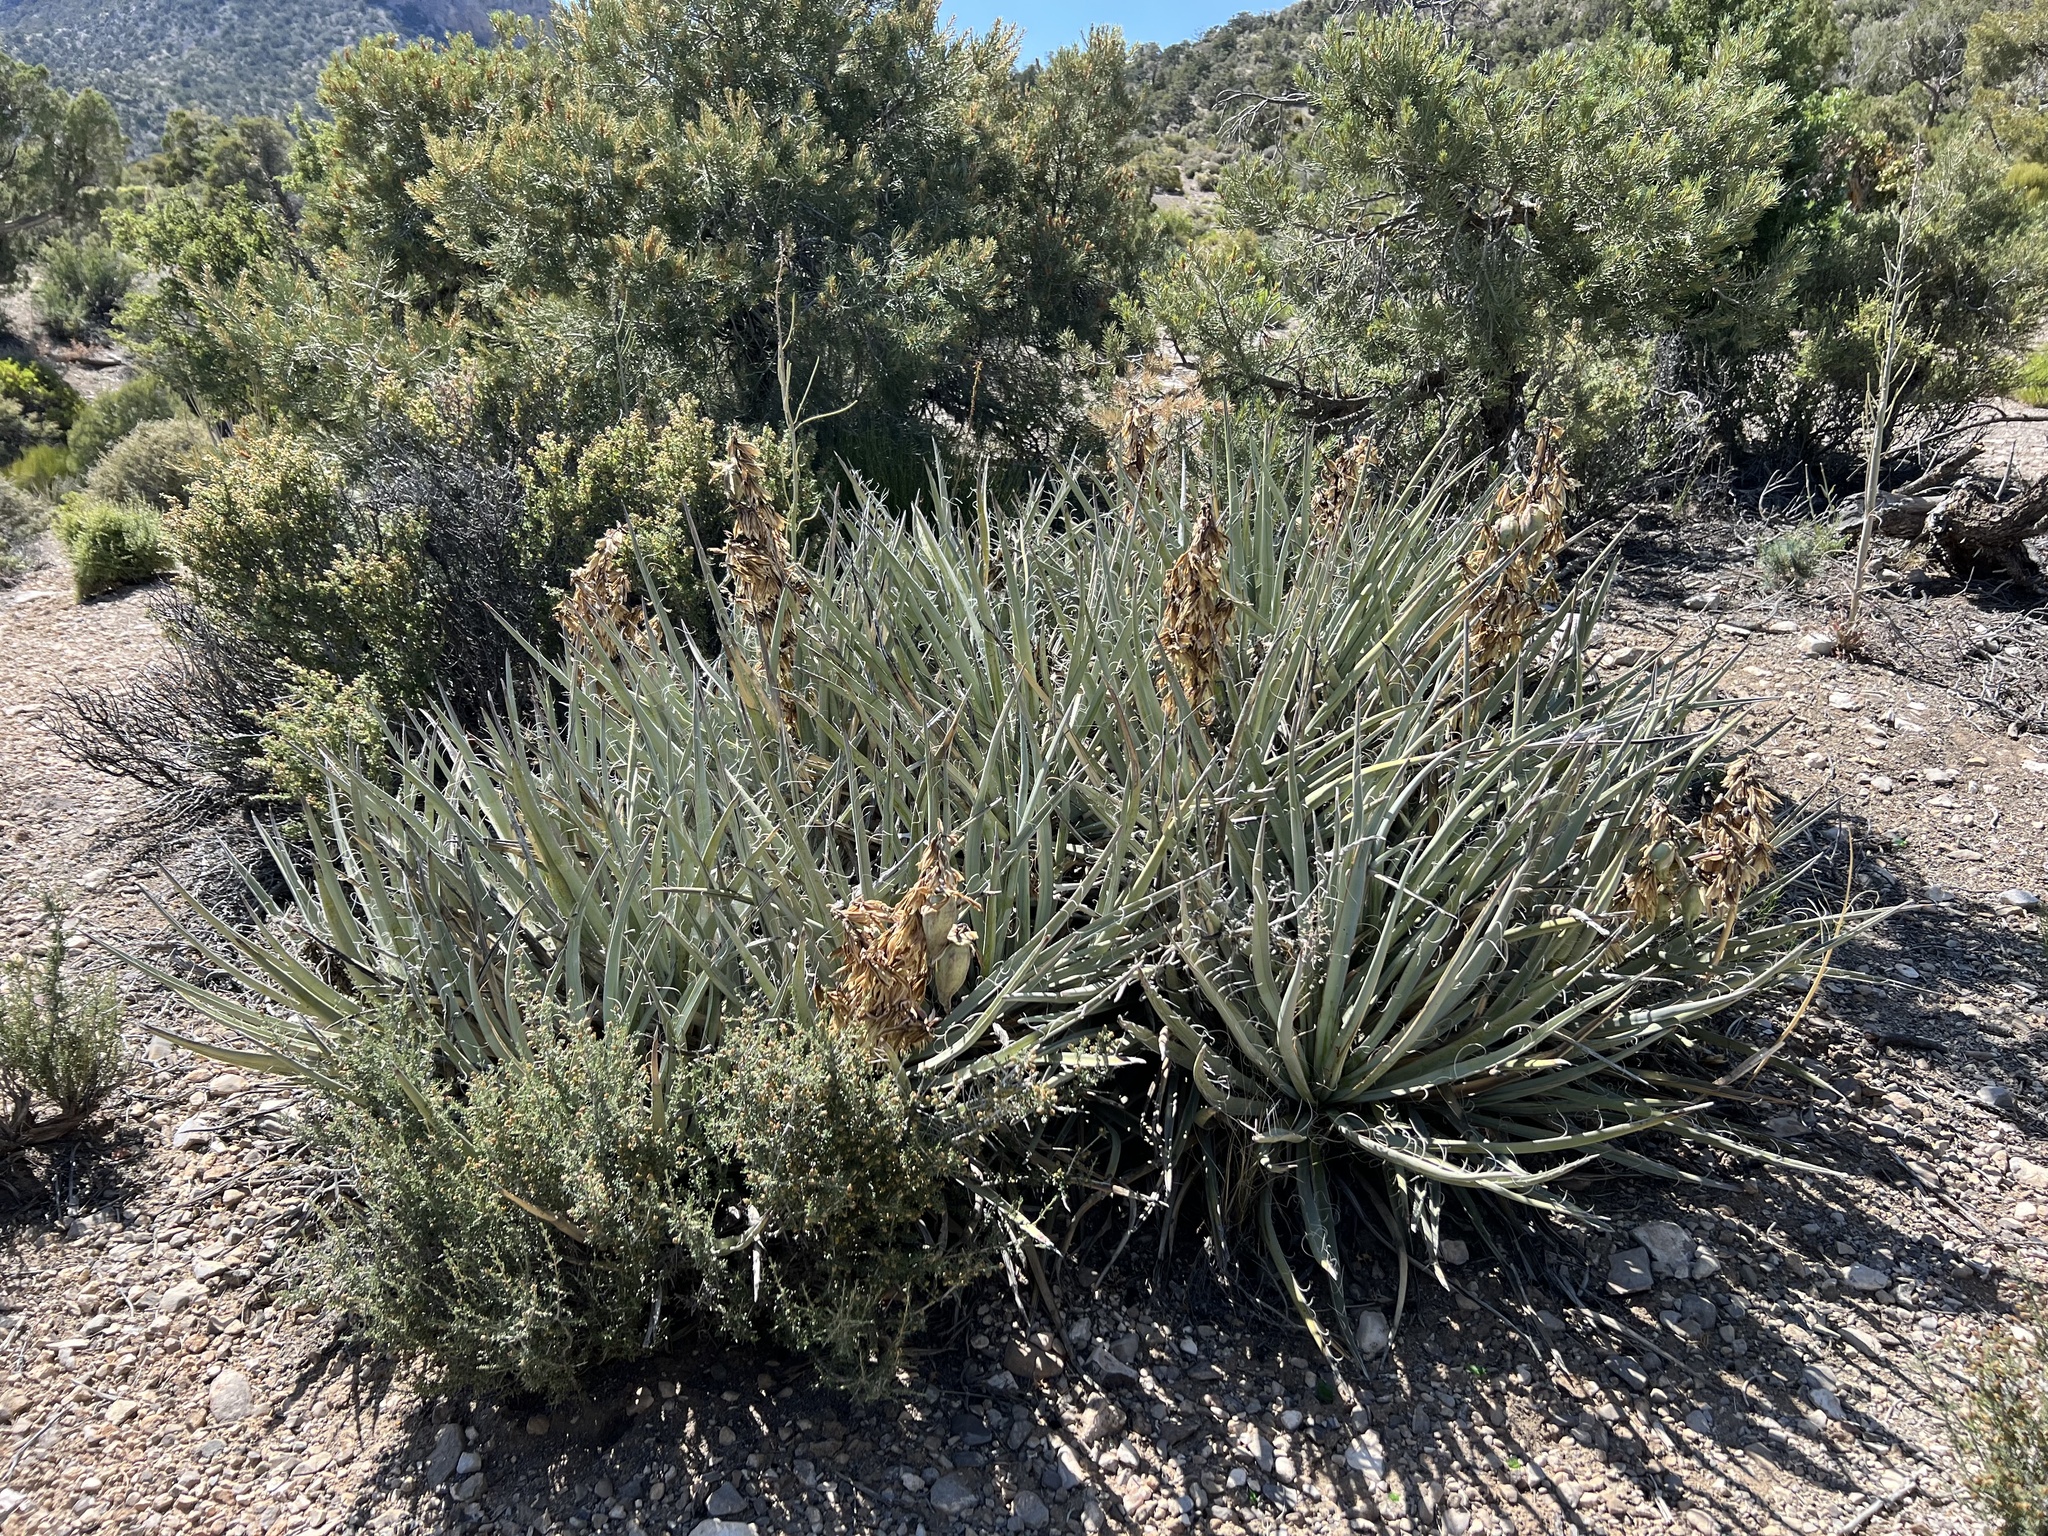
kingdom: Plantae
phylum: Tracheophyta
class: Liliopsida
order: Asparagales
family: Asparagaceae
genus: Yucca
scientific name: Yucca baccata
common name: Banana yucca
